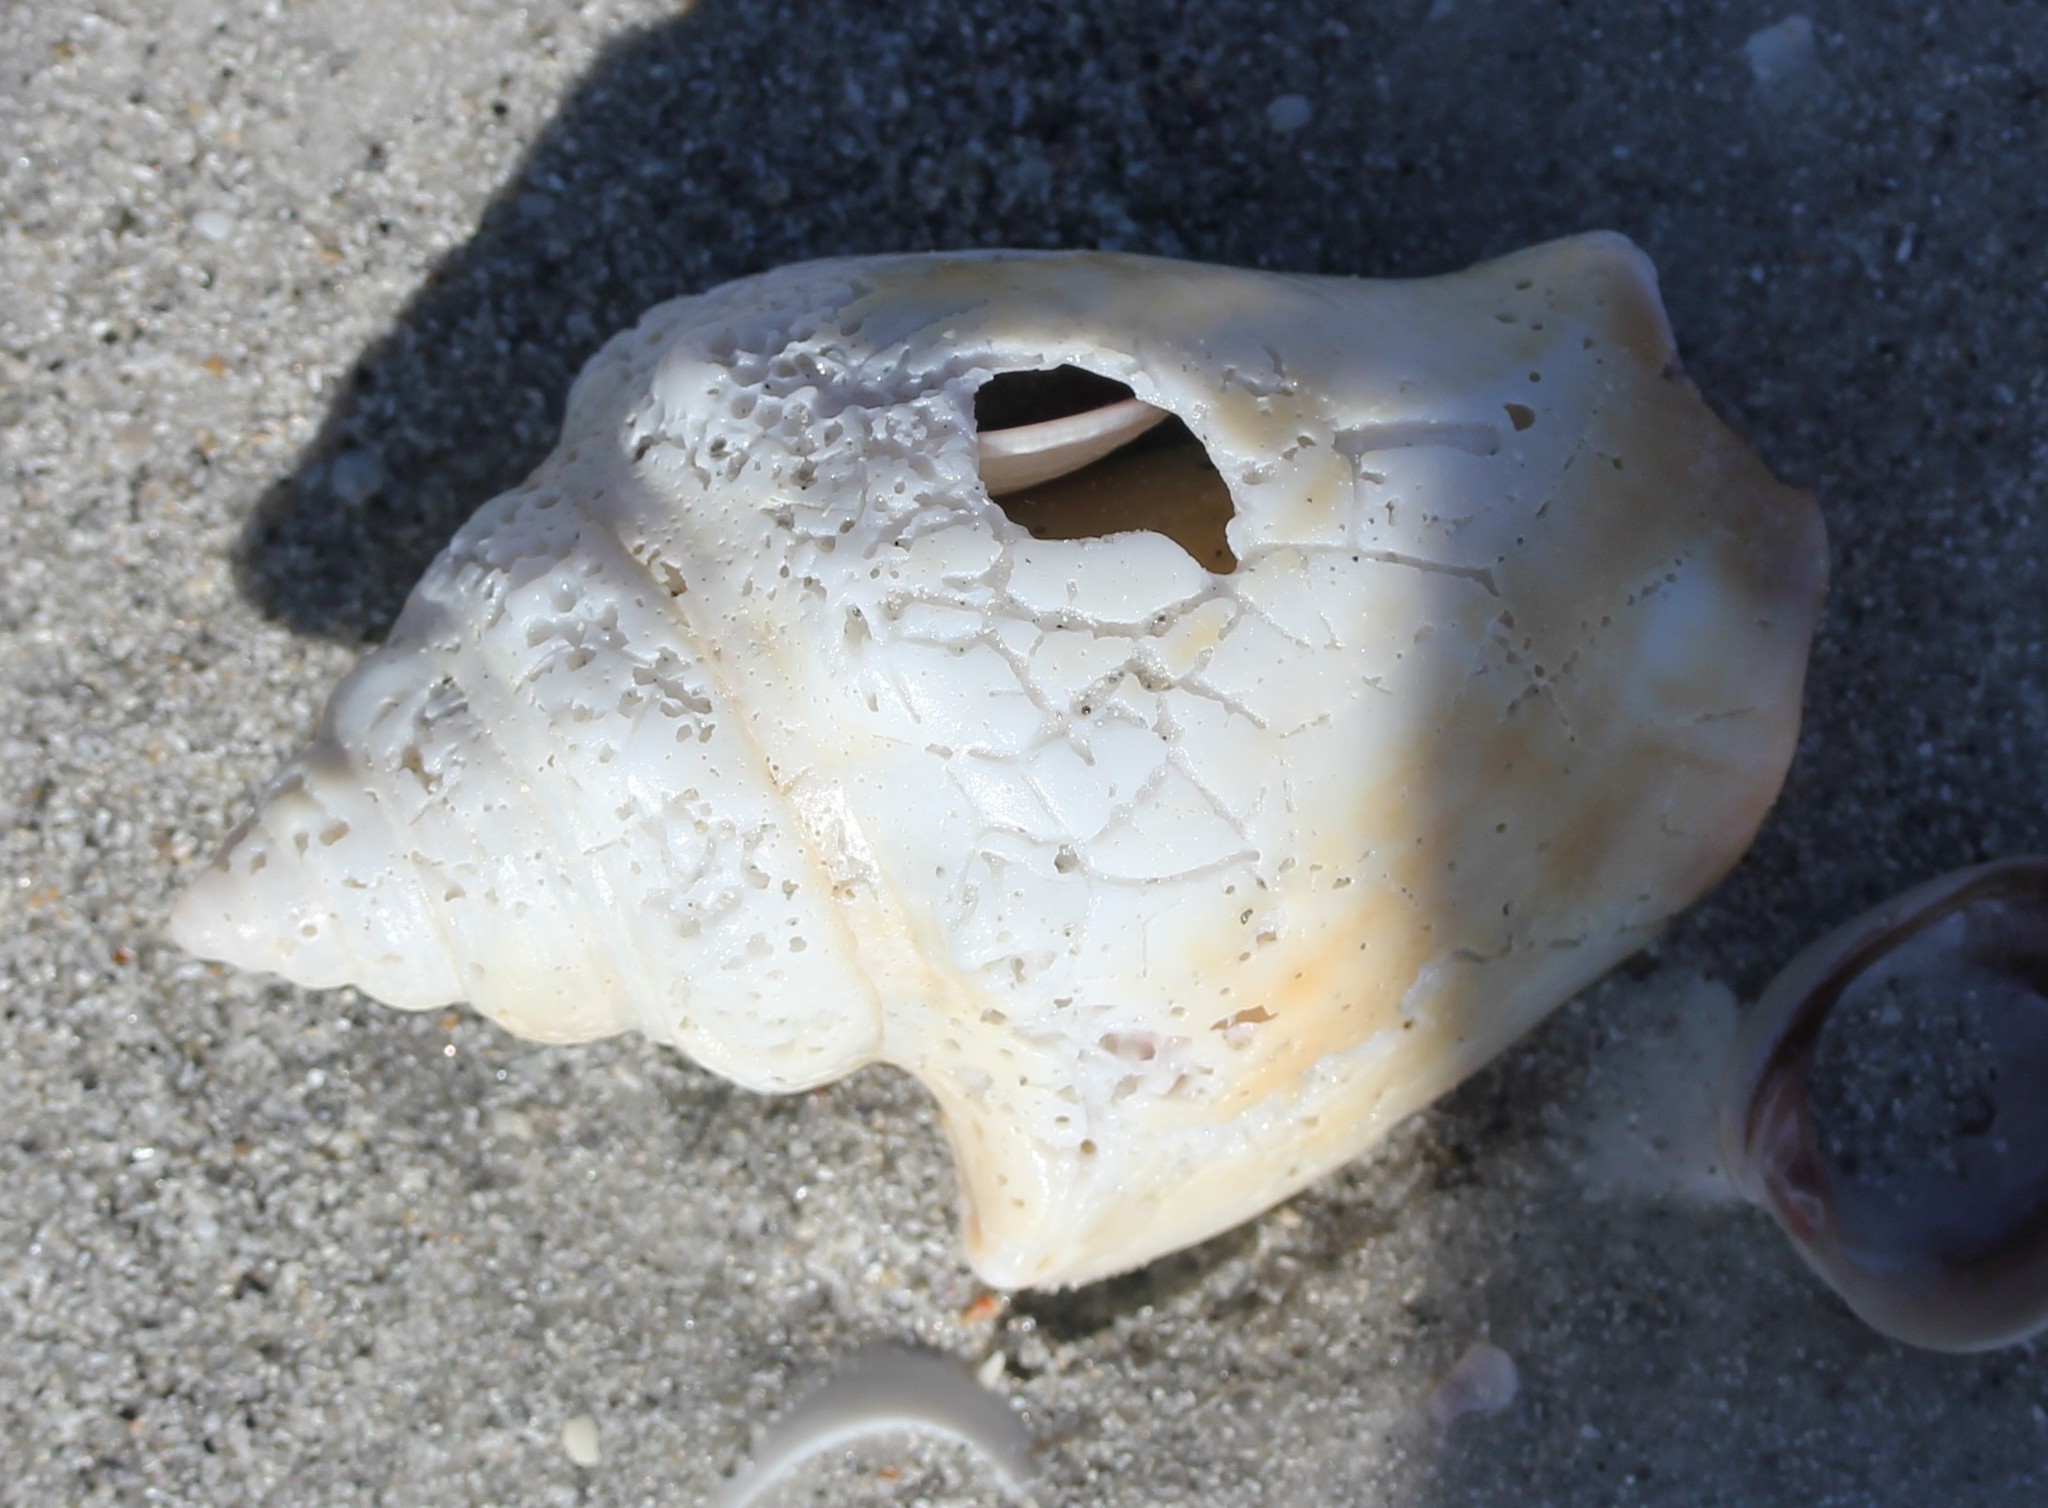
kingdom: Animalia
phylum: Mollusca
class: Gastropoda
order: Littorinimorpha
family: Strombidae
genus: Strombus
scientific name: Strombus alatus
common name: Florida fighting conch
